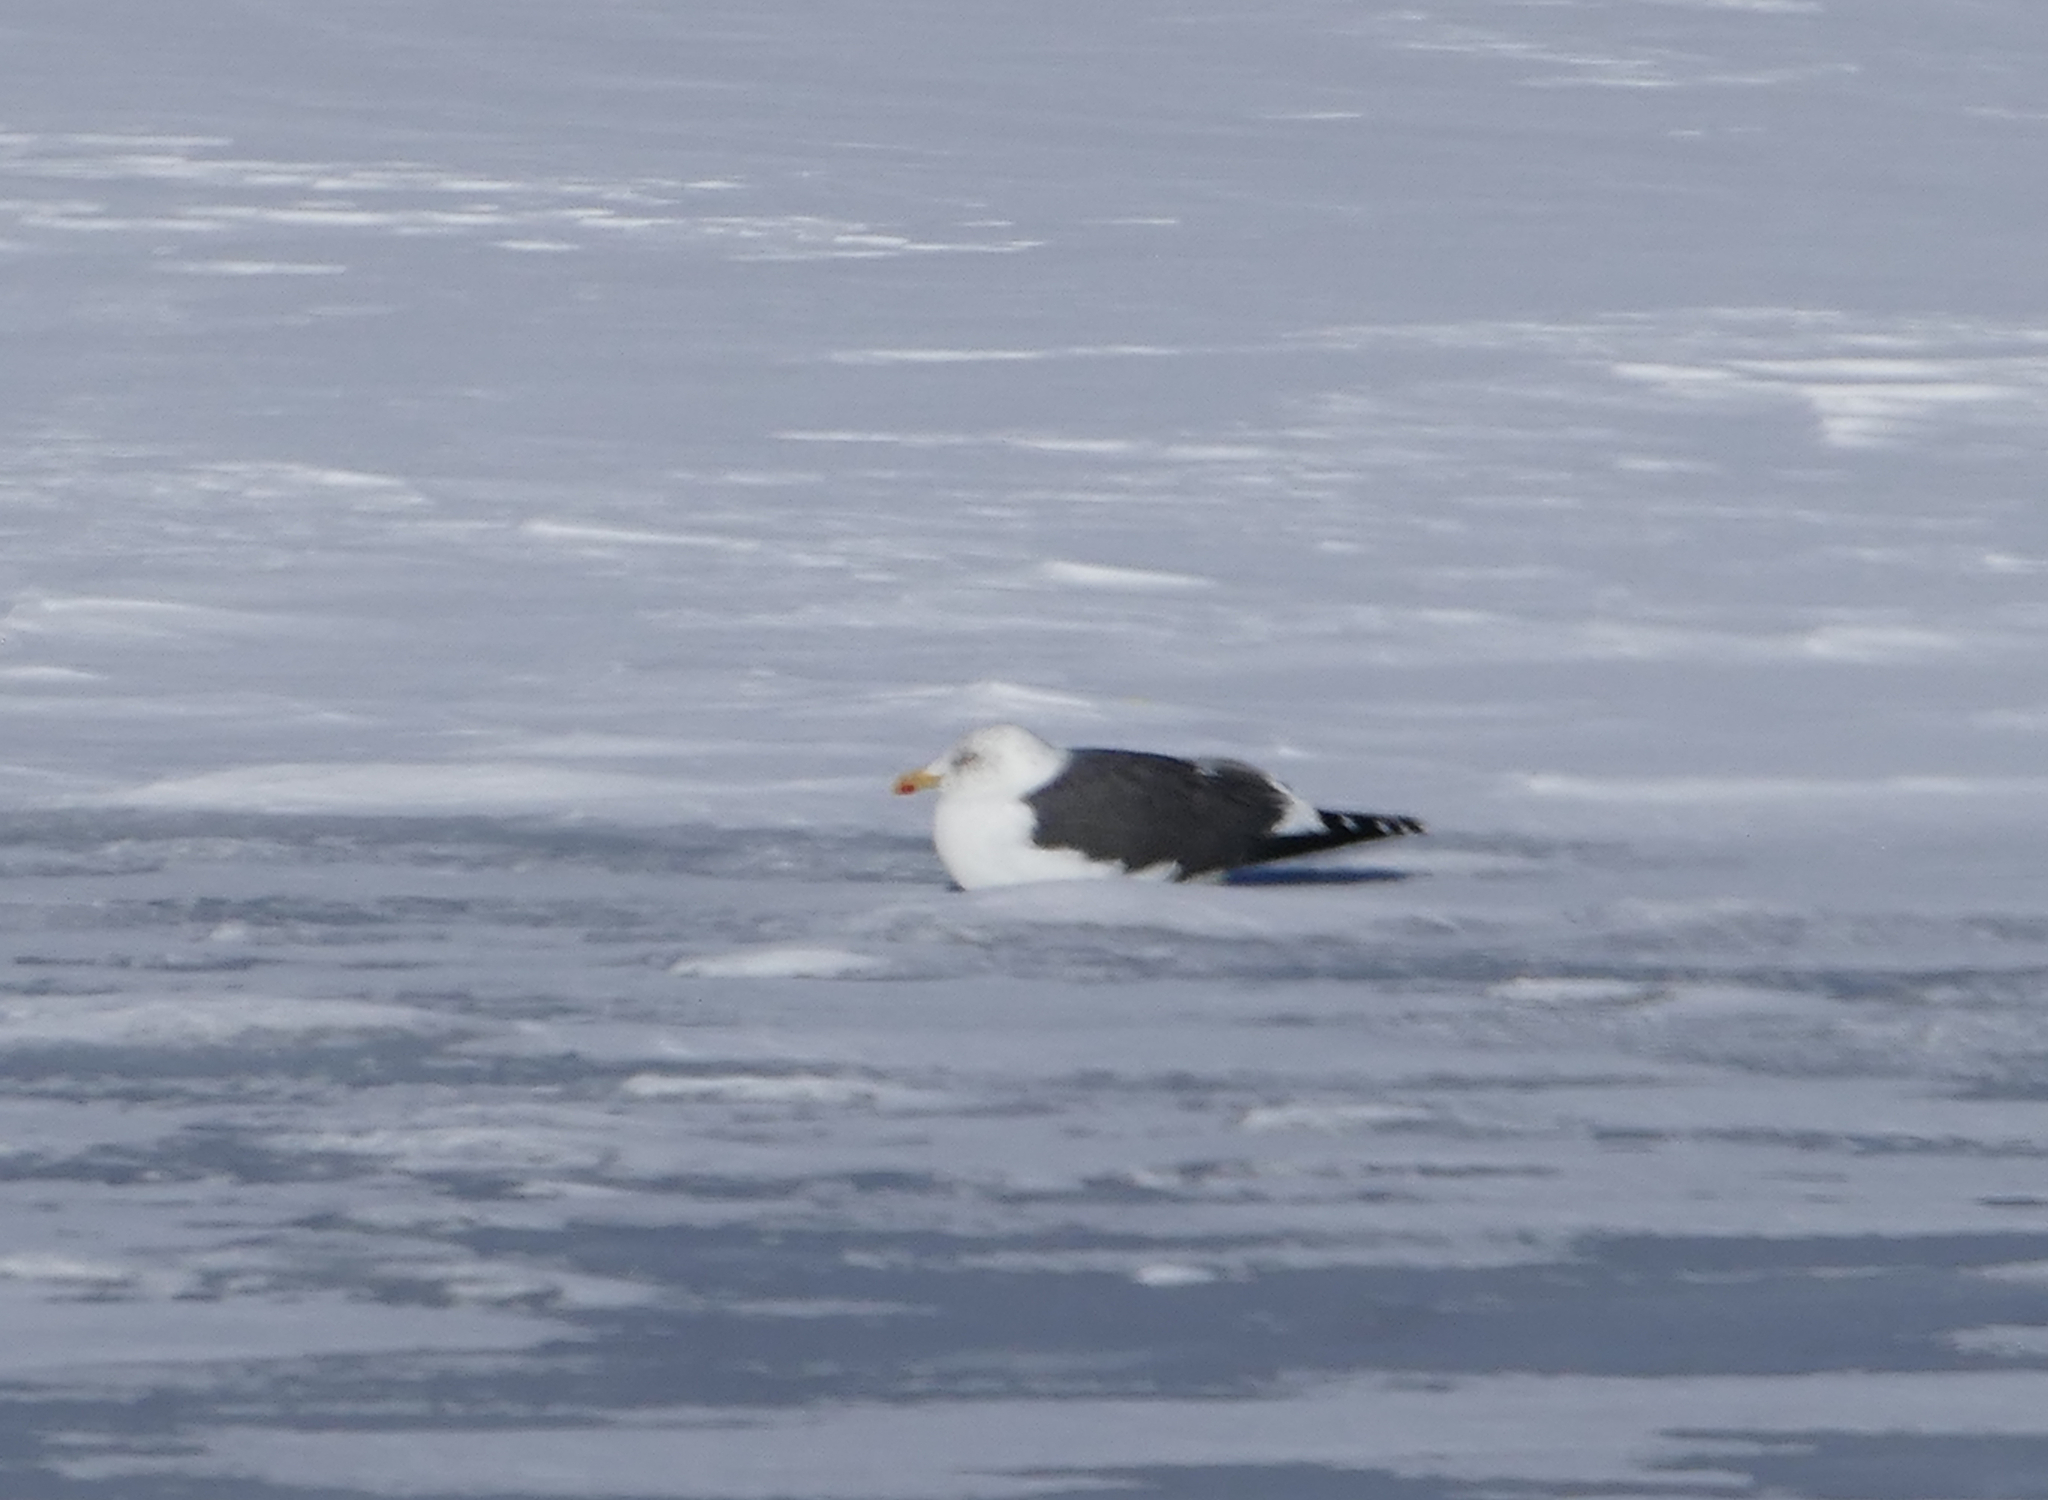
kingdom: Animalia
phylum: Chordata
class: Aves
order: Charadriiformes
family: Laridae
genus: Larus
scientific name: Larus fuscus
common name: Lesser black-backed gull
